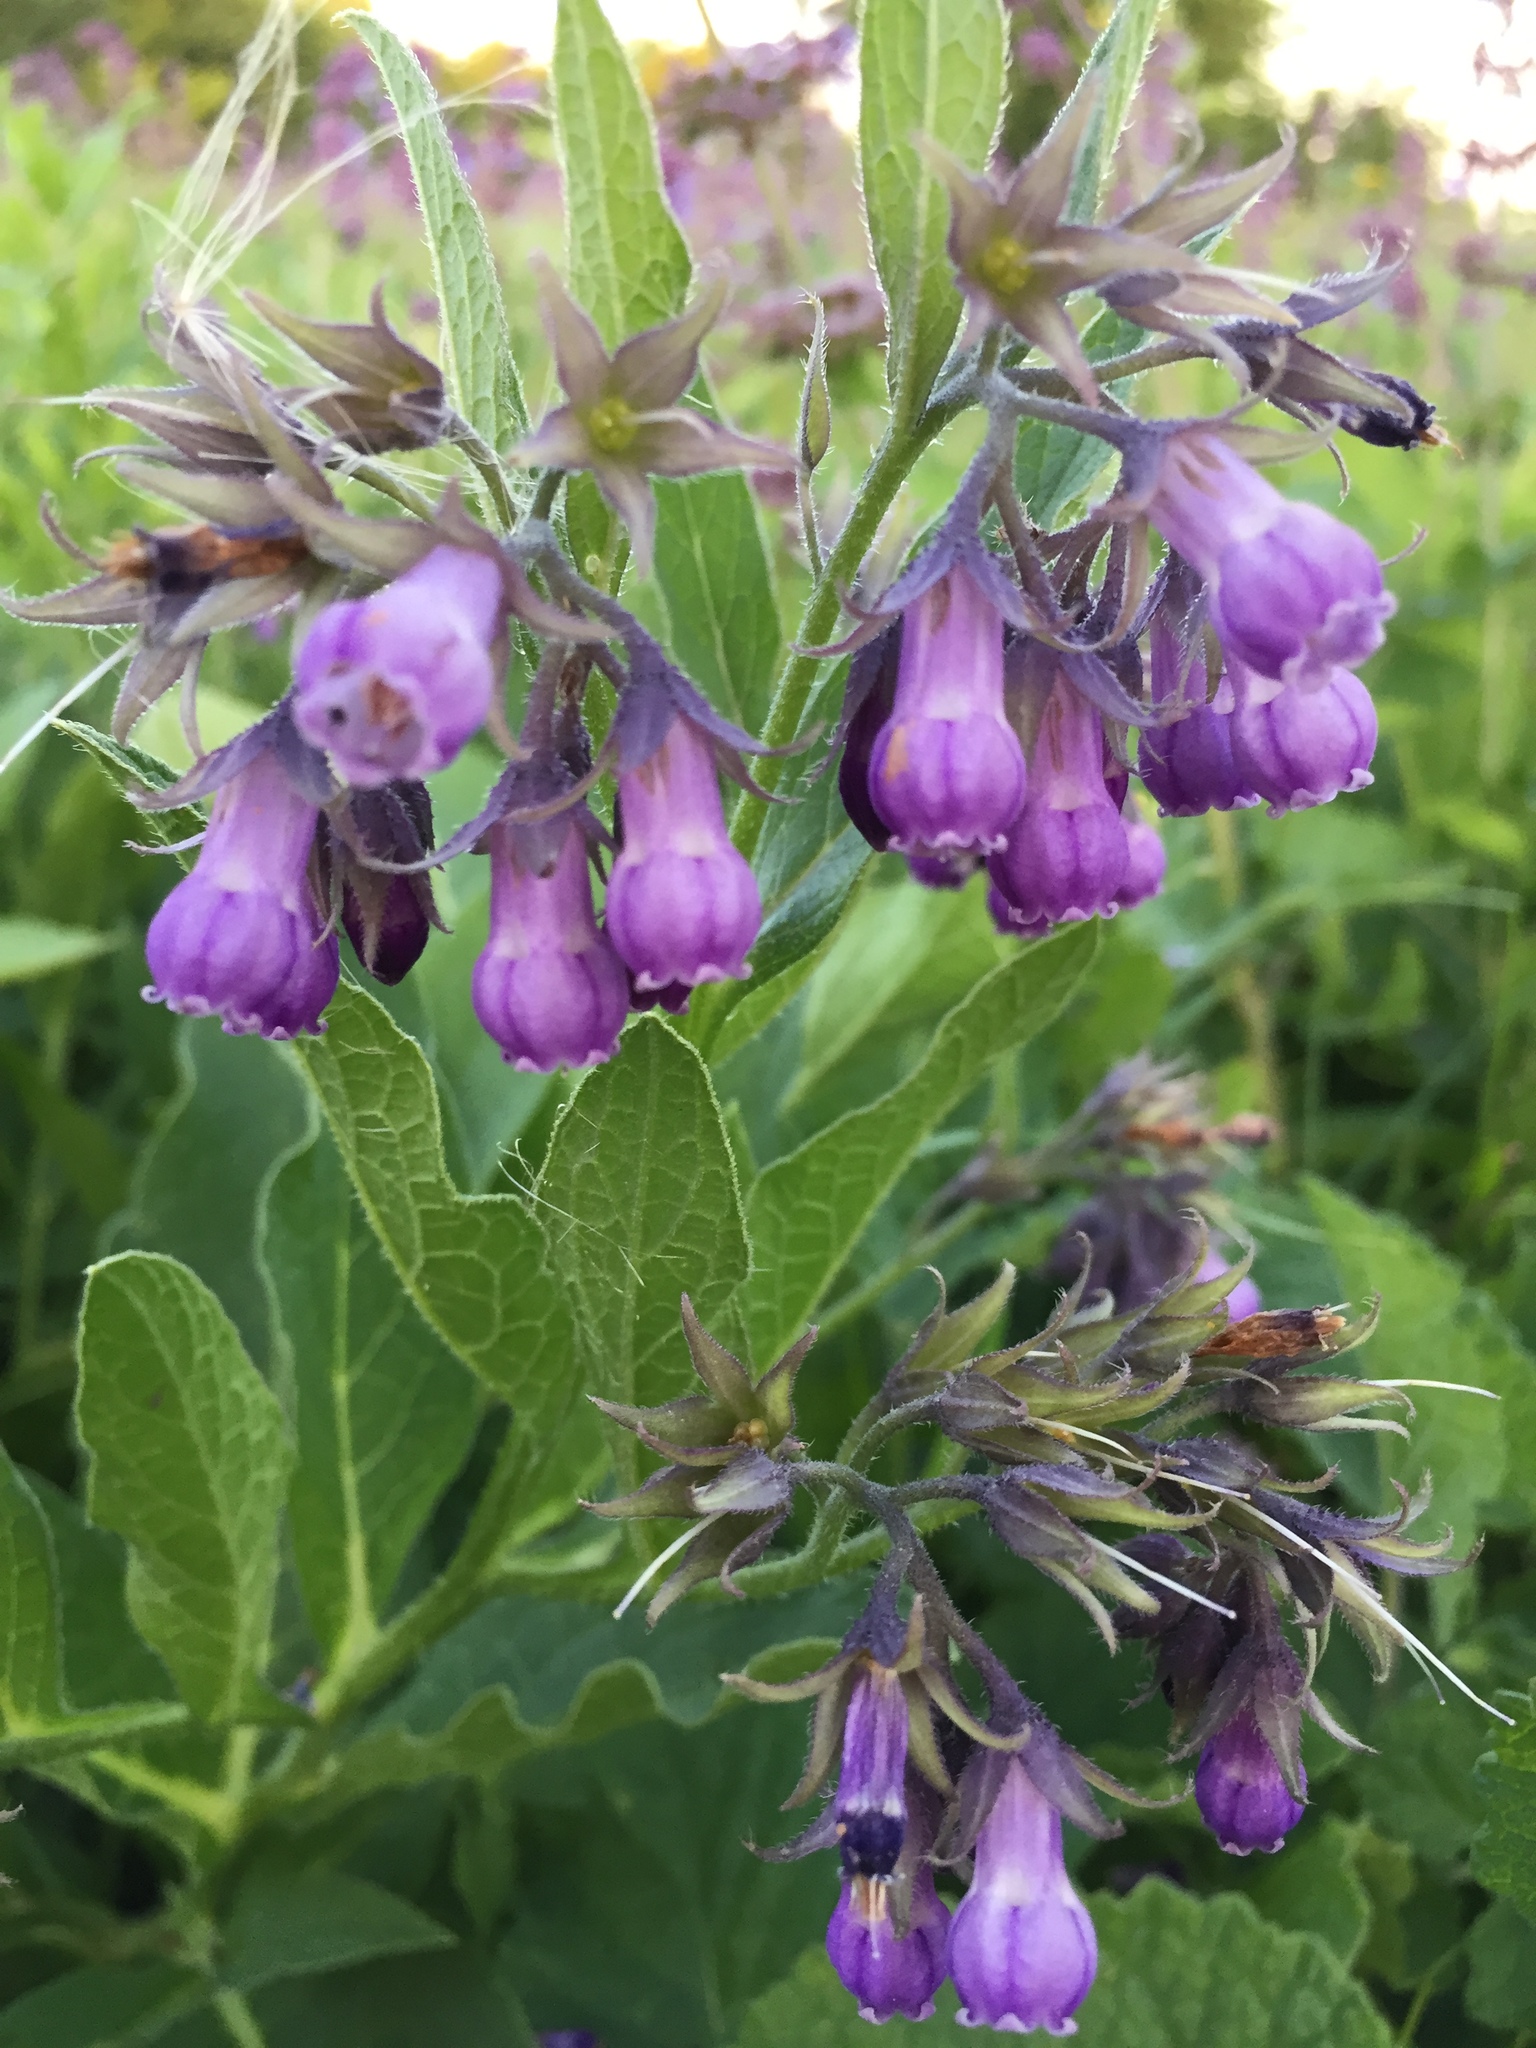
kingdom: Plantae
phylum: Tracheophyta
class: Magnoliopsida
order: Boraginales
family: Boraginaceae
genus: Symphytum
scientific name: Symphytum officinale
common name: Common comfrey
